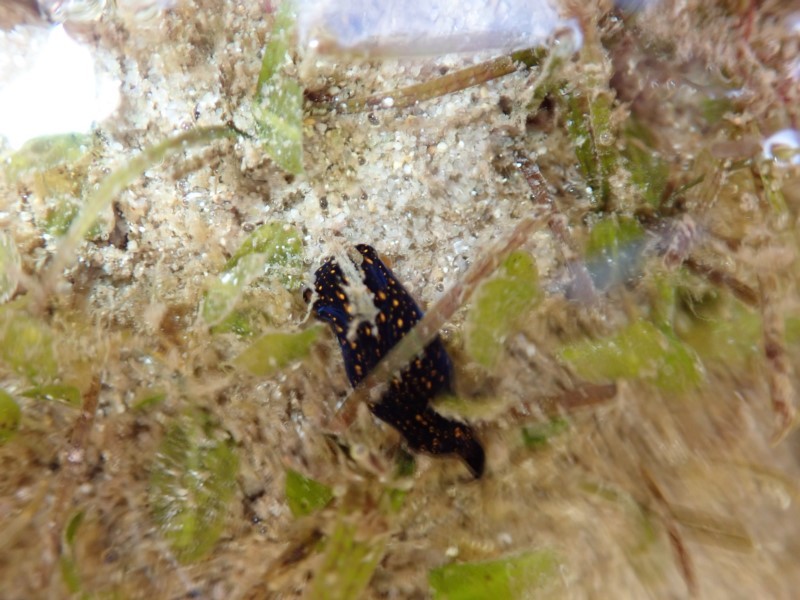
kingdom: Animalia
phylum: Mollusca
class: Gastropoda
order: Cephalaspidea
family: Aglajidae
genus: Mariaglaja
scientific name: Mariaglaja tsurugensis
